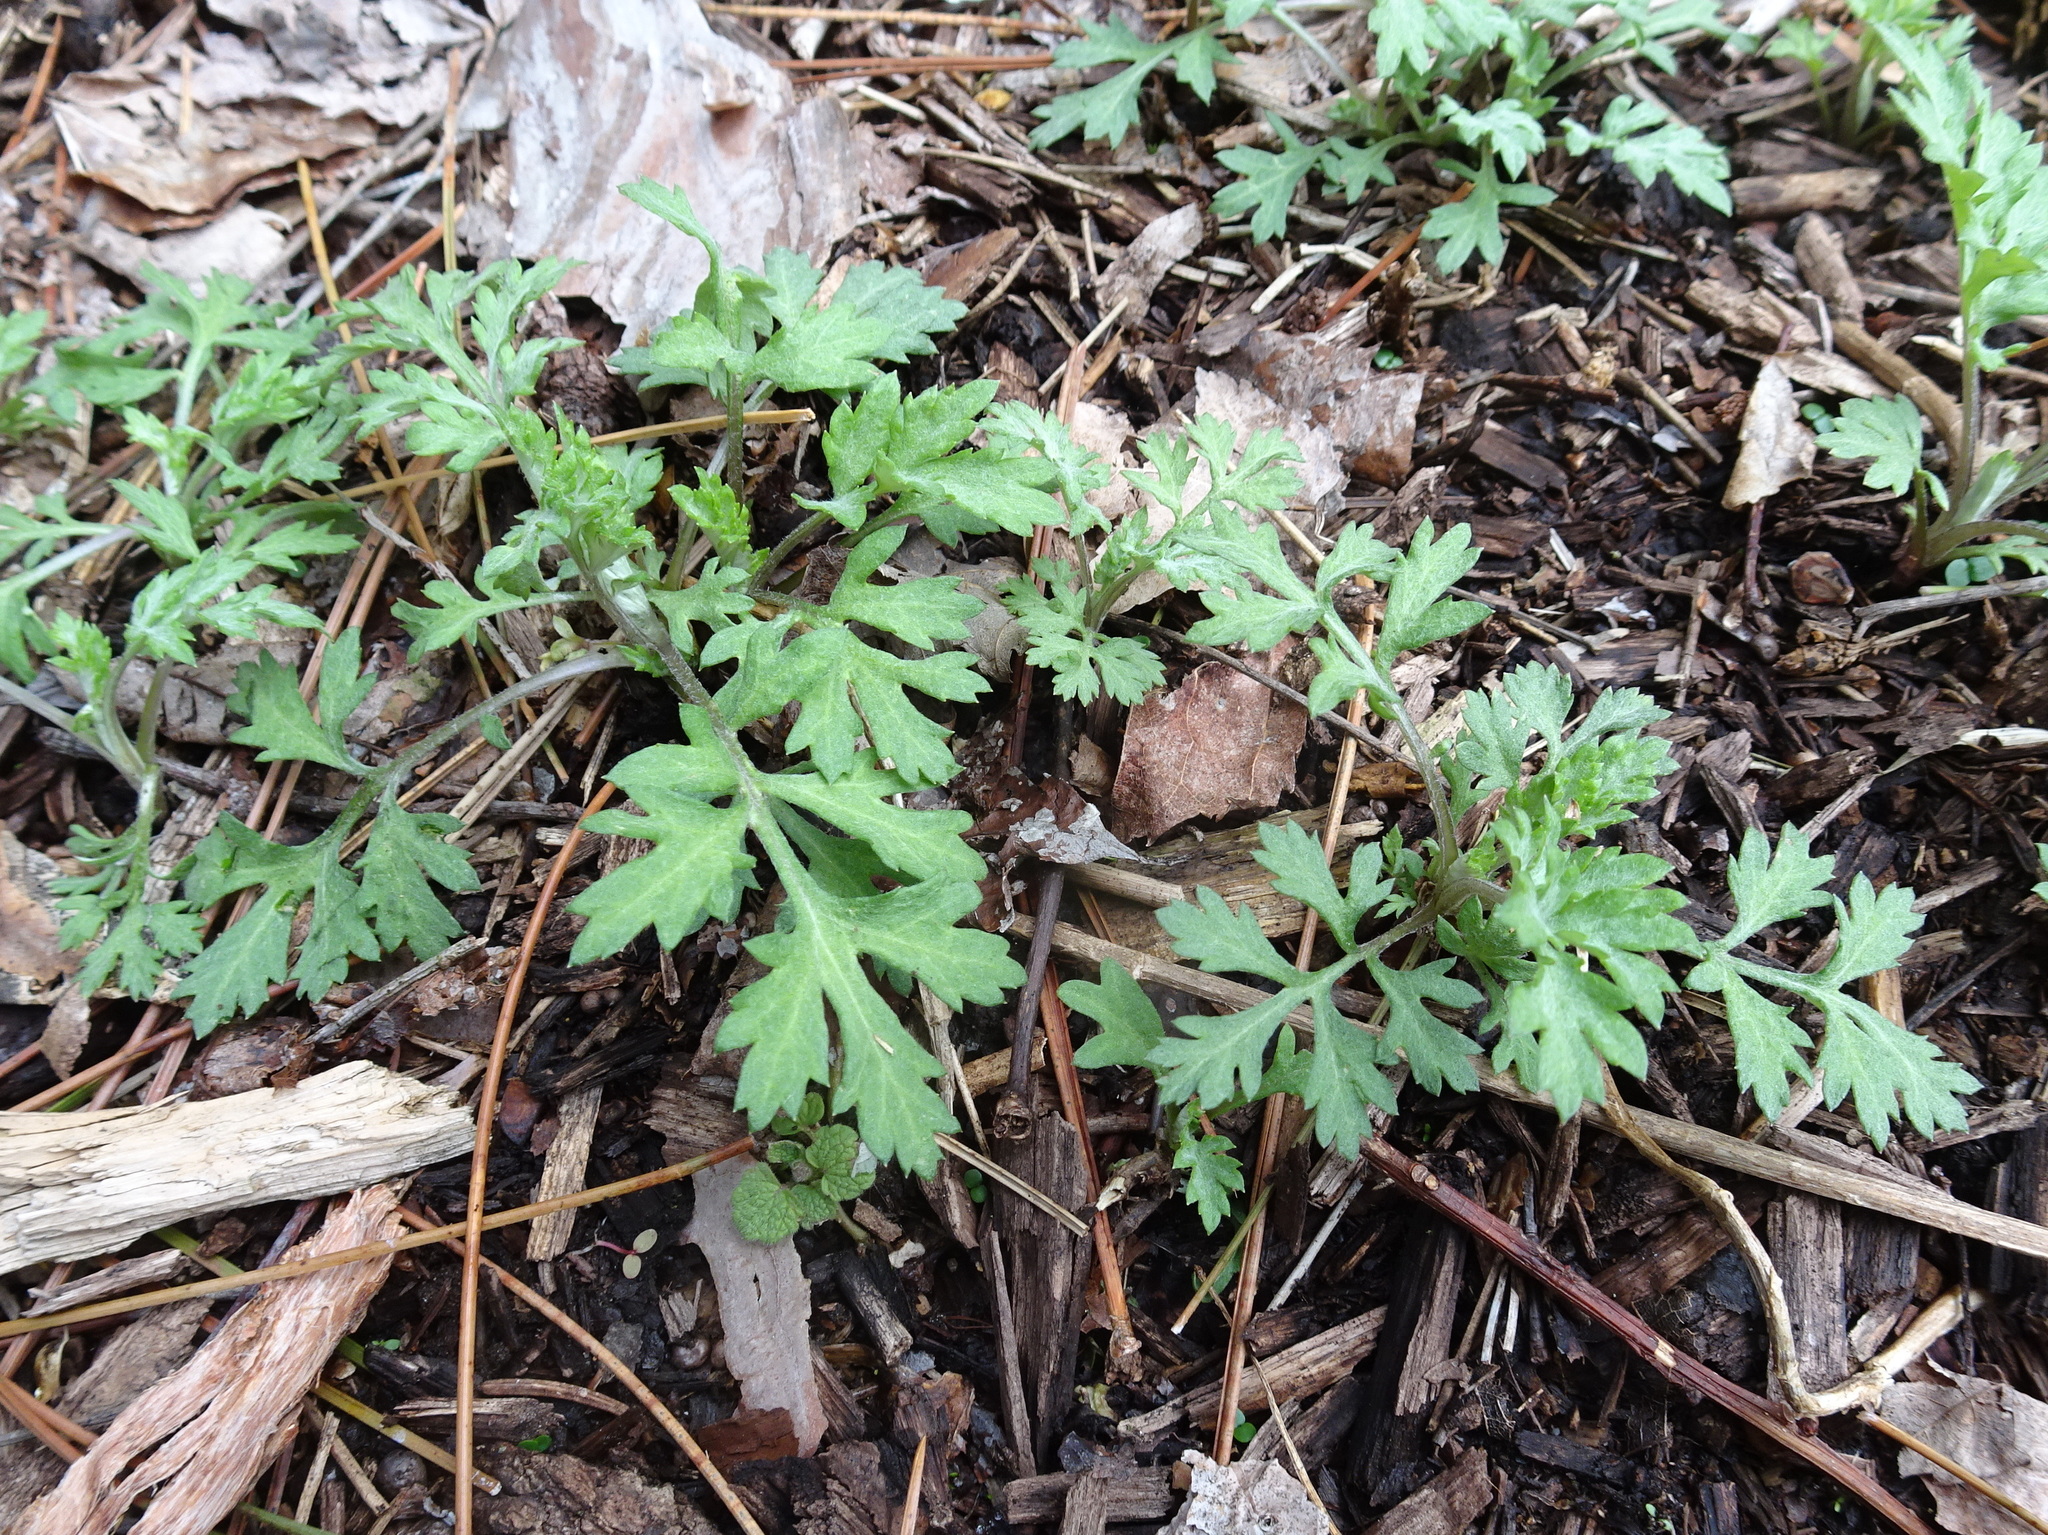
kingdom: Plantae
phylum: Tracheophyta
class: Magnoliopsida
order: Asterales
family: Asteraceae
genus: Artemisia
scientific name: Artemisia vulgaris
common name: Mugwort
